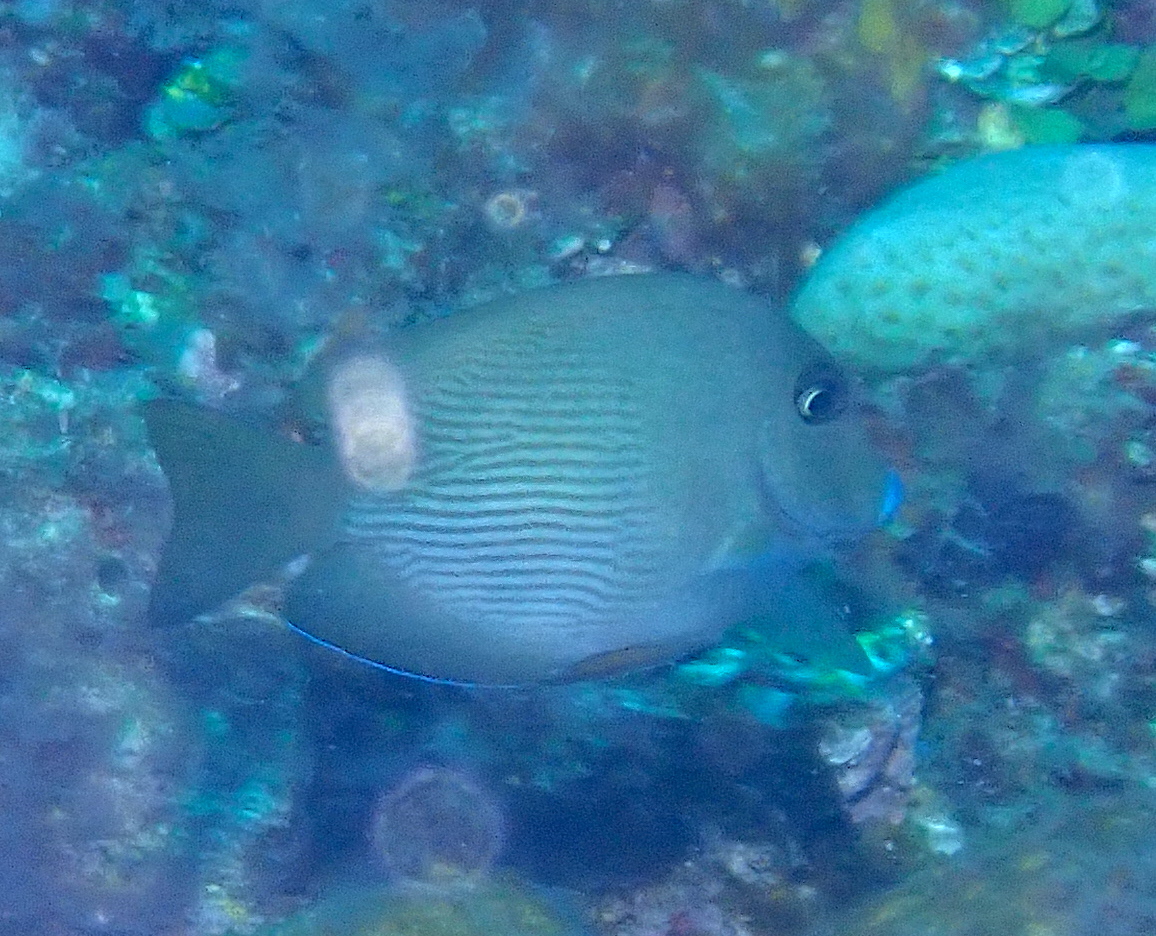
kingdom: Animalia
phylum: Chordata
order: Perciformes
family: Acanthuridae
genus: Ctenochaetus
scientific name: Ctenochaetus cyanocheilus
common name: Short-tail bristle-tooth
